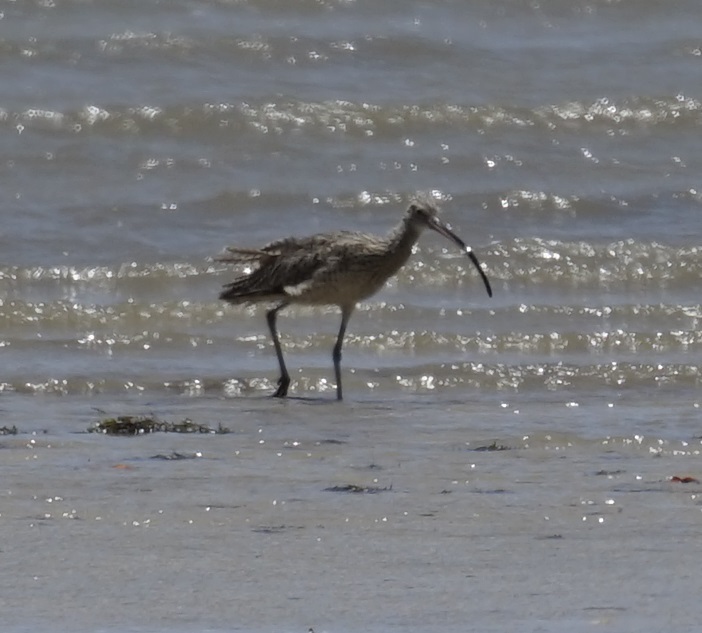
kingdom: Animalia
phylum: Chordata
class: Aves
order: Charadriiformes
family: Scolopacidae
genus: Numenius
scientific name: Numenius madagascariensis
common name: Far eastern curlew
